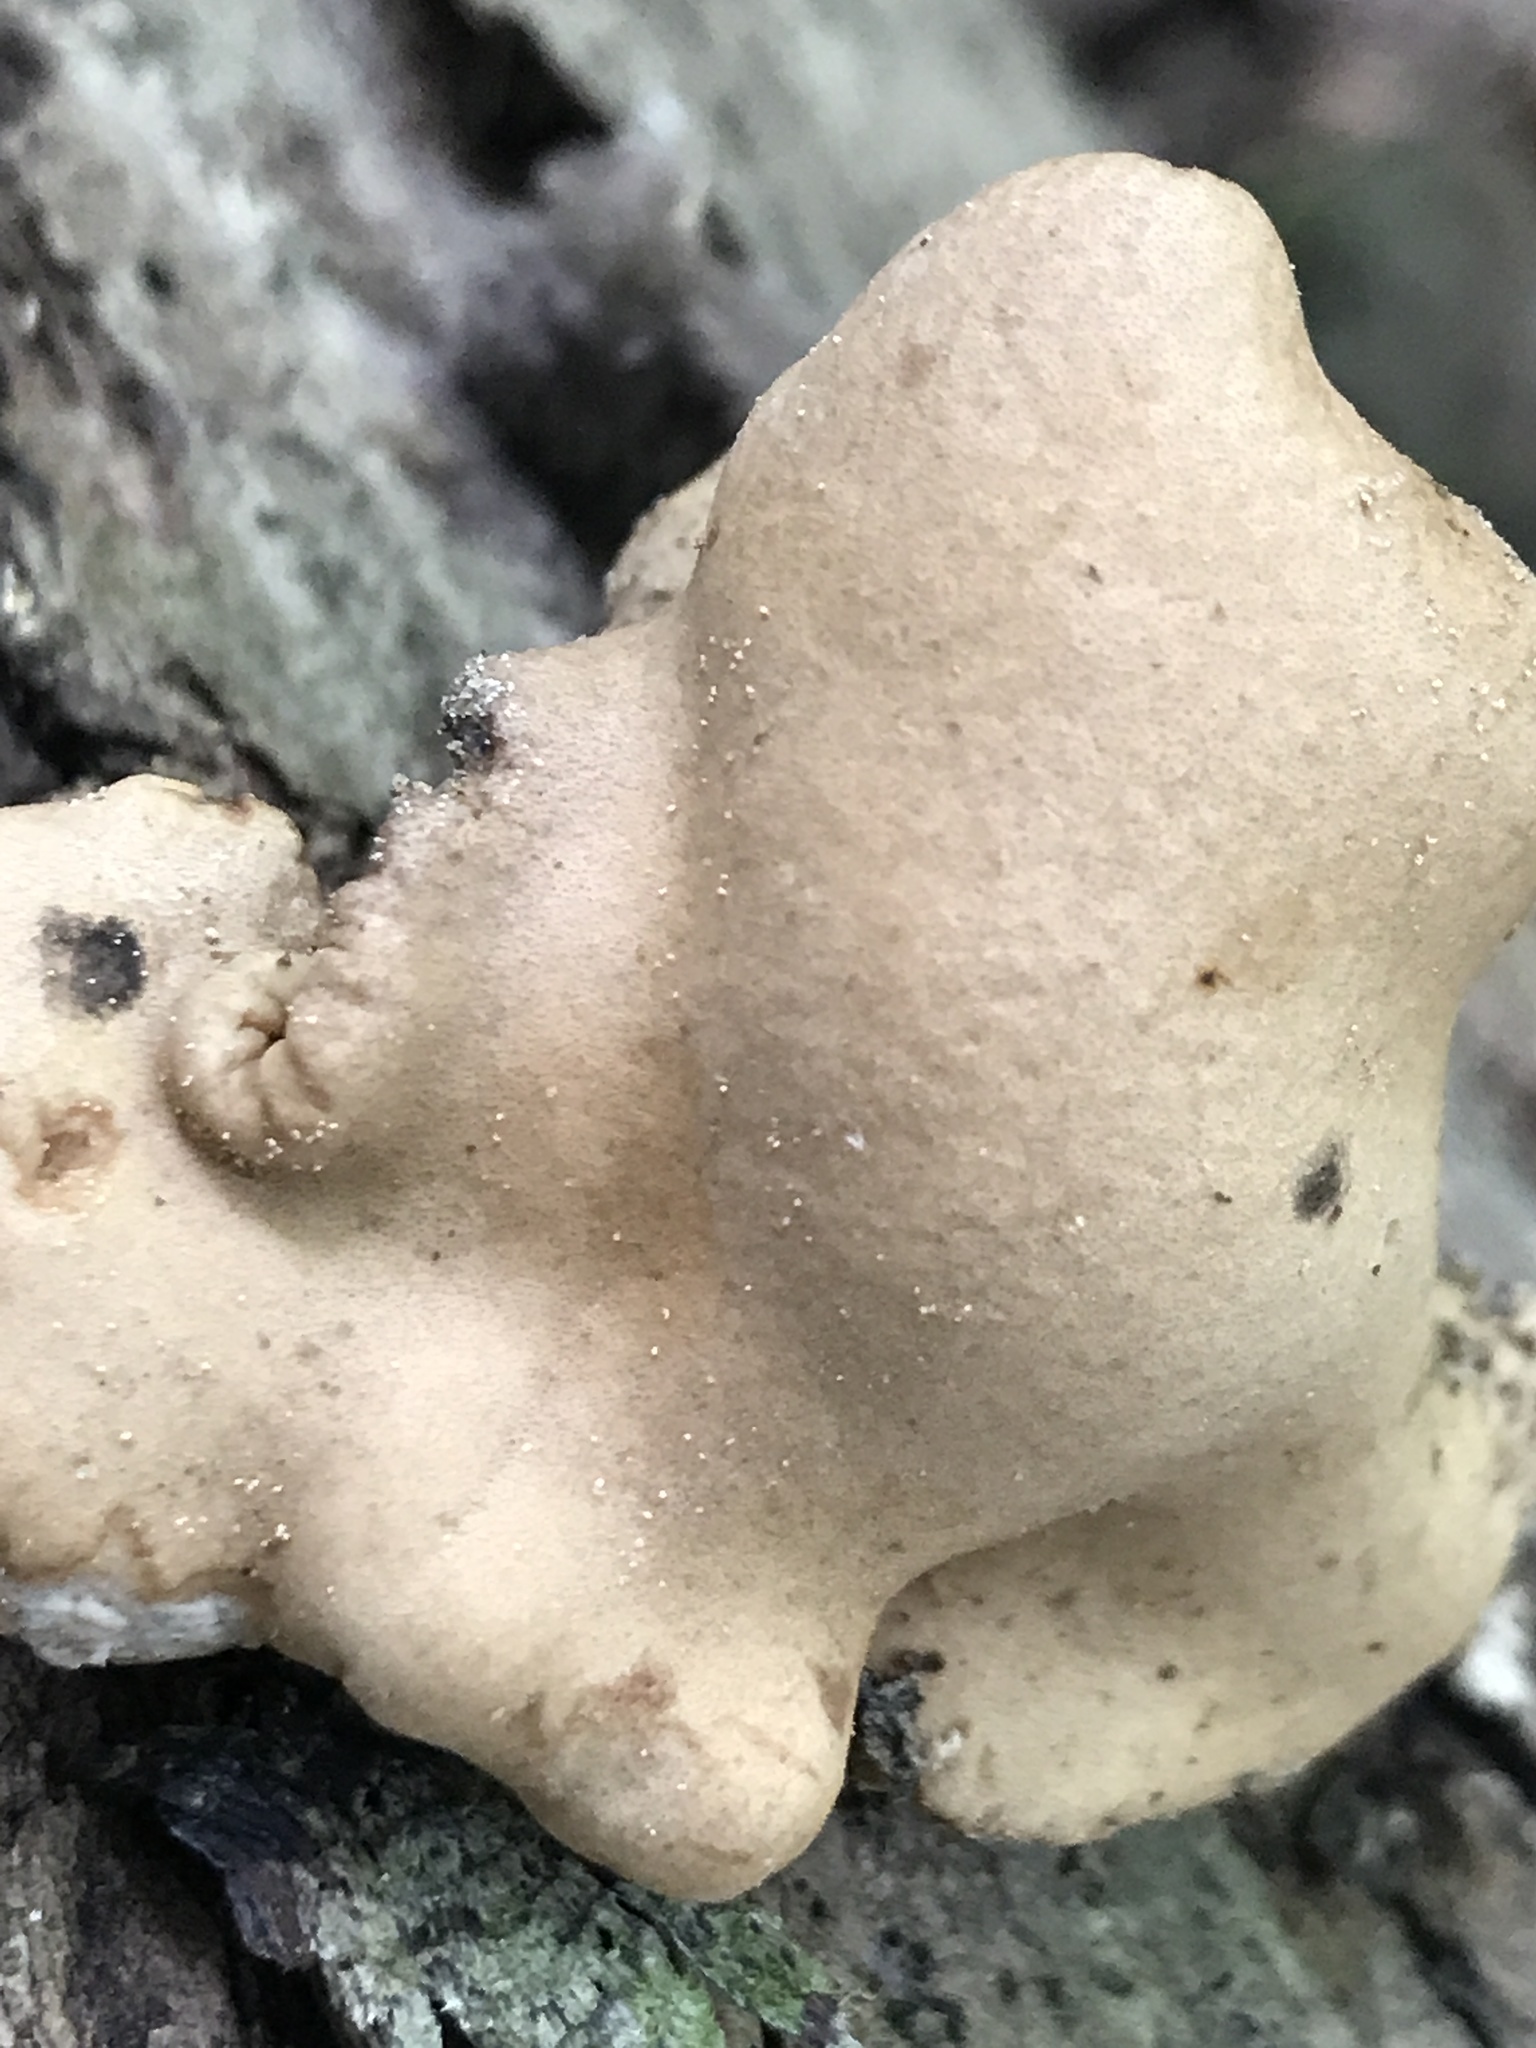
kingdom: Fungi
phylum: Ascomycota
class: Sordariomycetes
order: Hypocreales
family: Hypocreaceae
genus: Trichoderma
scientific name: Trichoderma peltatum
